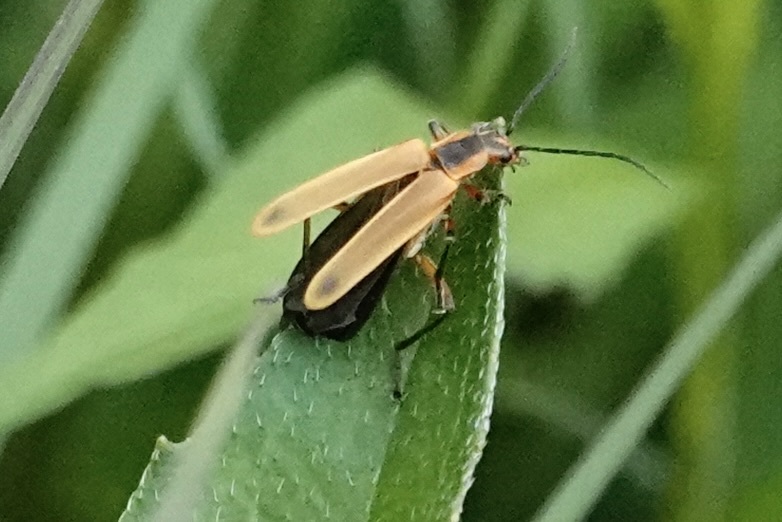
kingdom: Animalia
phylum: Arthropoda
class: Insecta
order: Coleoptera
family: Cantharidae
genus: Chauliognathus
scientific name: Chauliognathus marginatus
